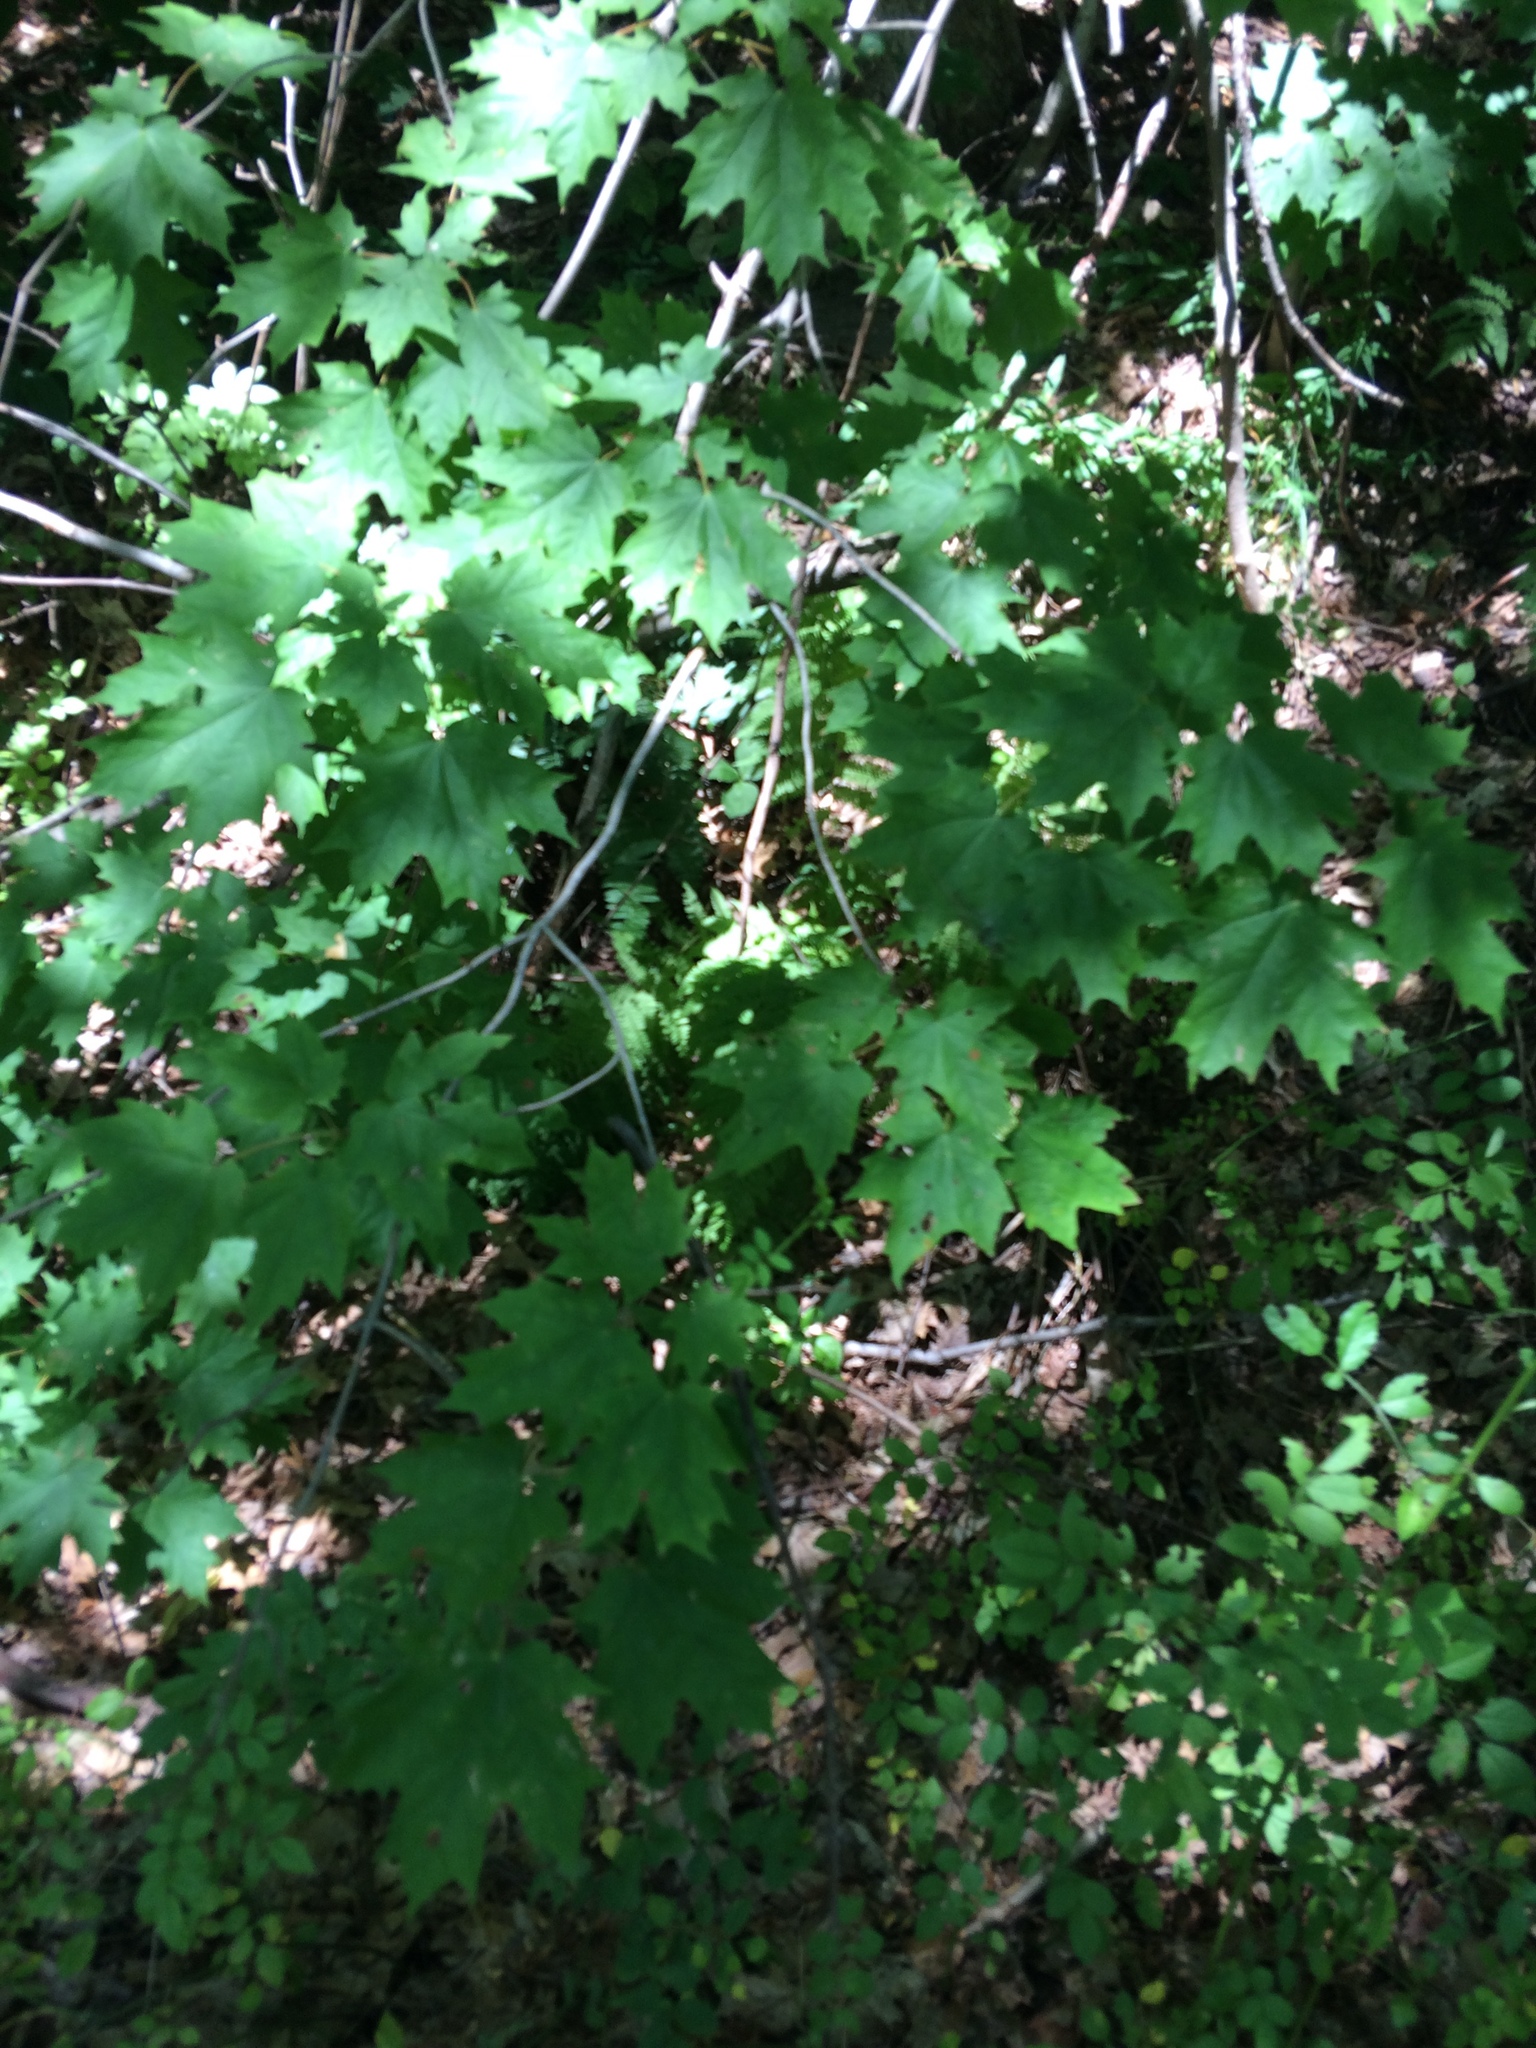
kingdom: Plantae
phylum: Tracheophyta
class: Magnoliopsida
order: Sapindales
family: Sapindaceae
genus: Acer
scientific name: Acer saccharum
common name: Sugar maple
